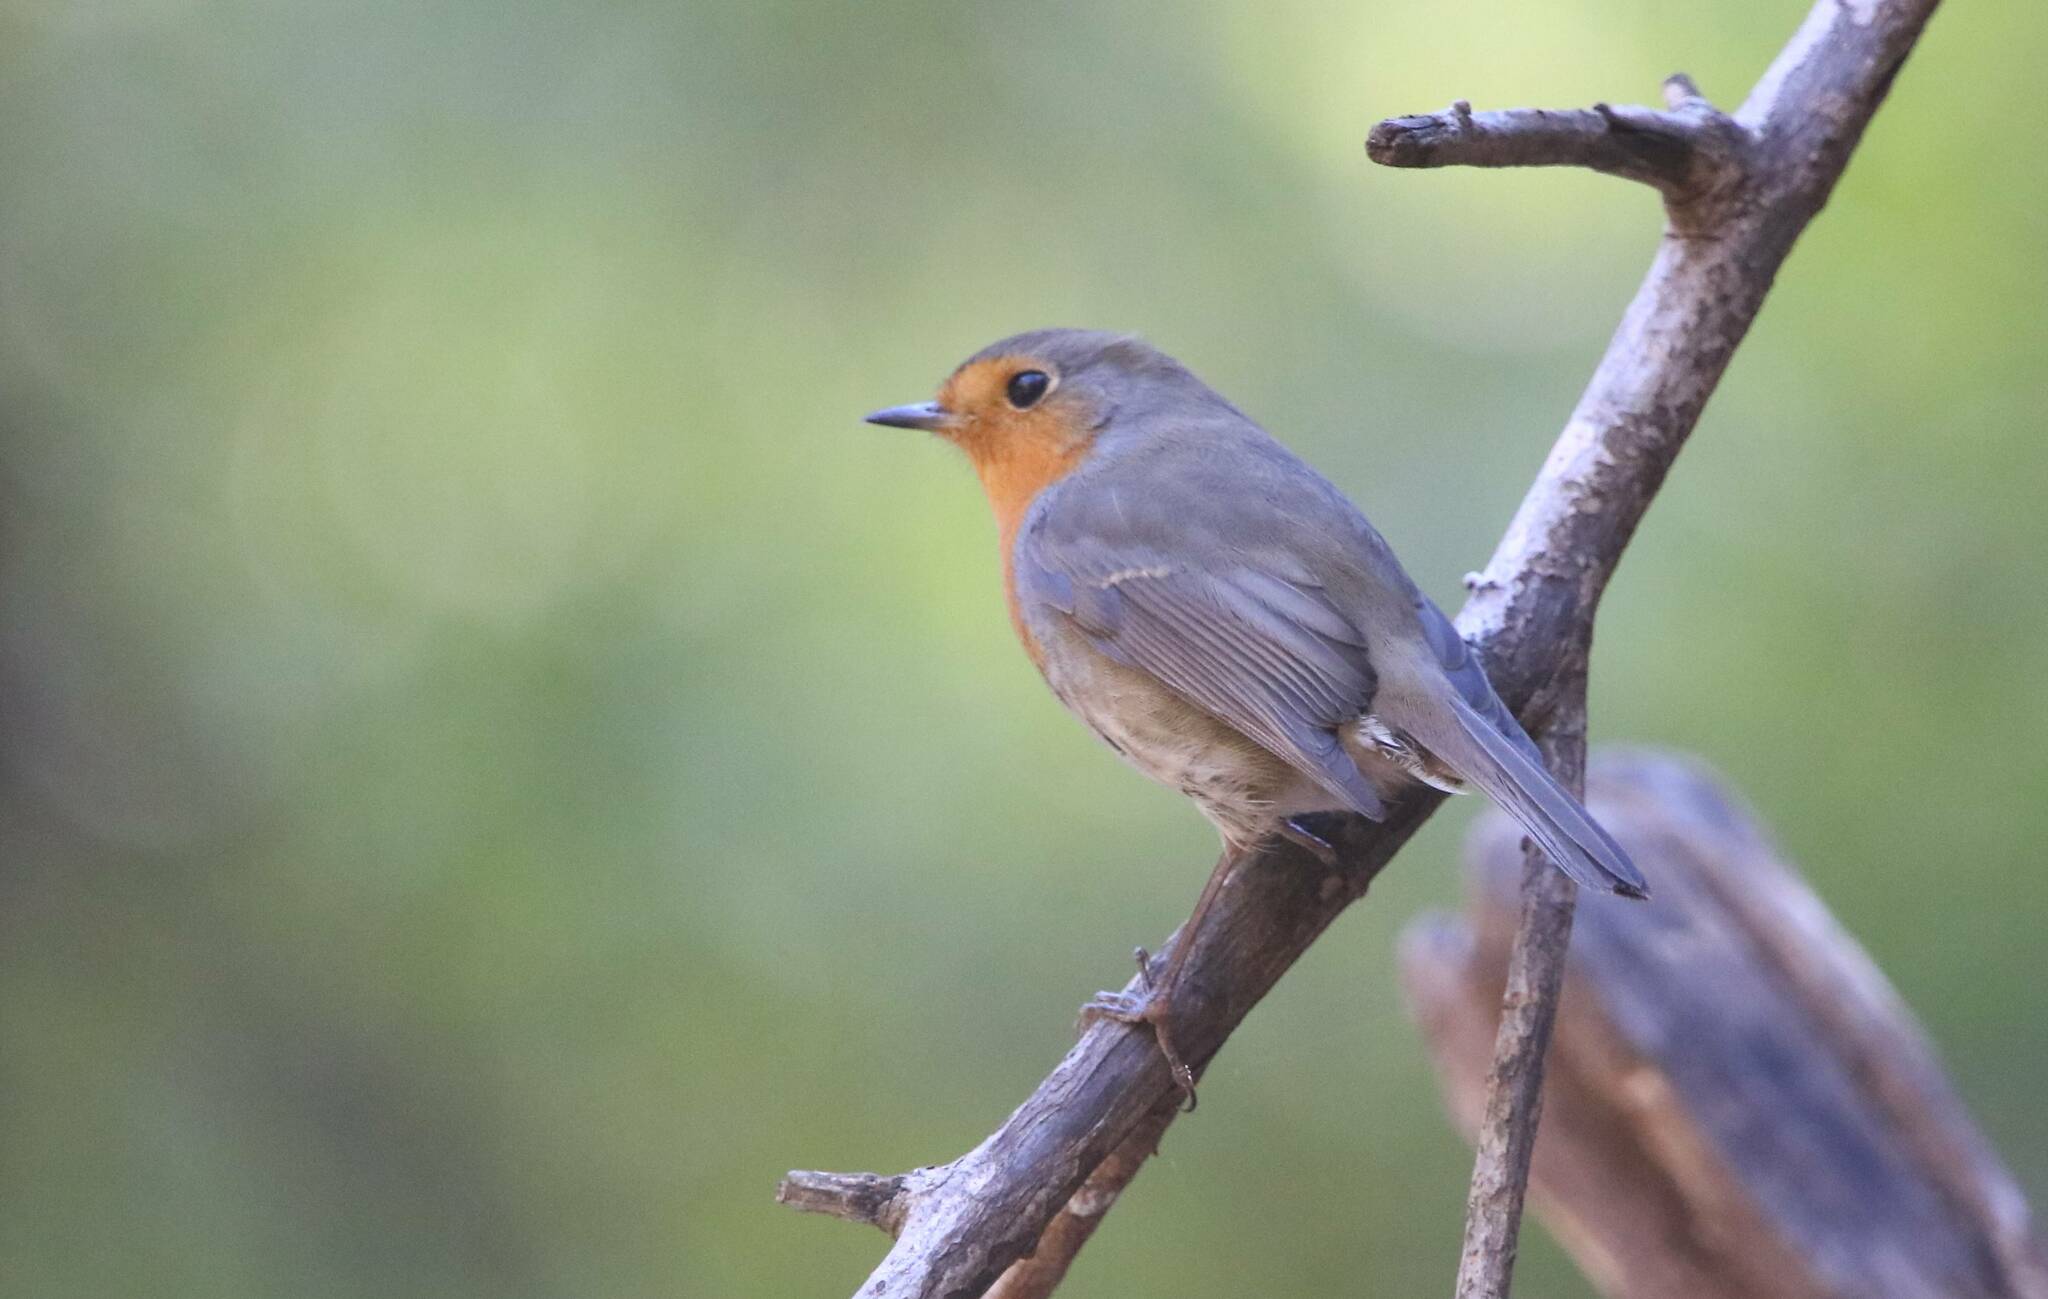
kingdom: Animalia
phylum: Chordata
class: Aves
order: Passeriformes
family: Muscicapidae
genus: Erithacus
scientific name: Erithacus rubecula
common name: European robin
